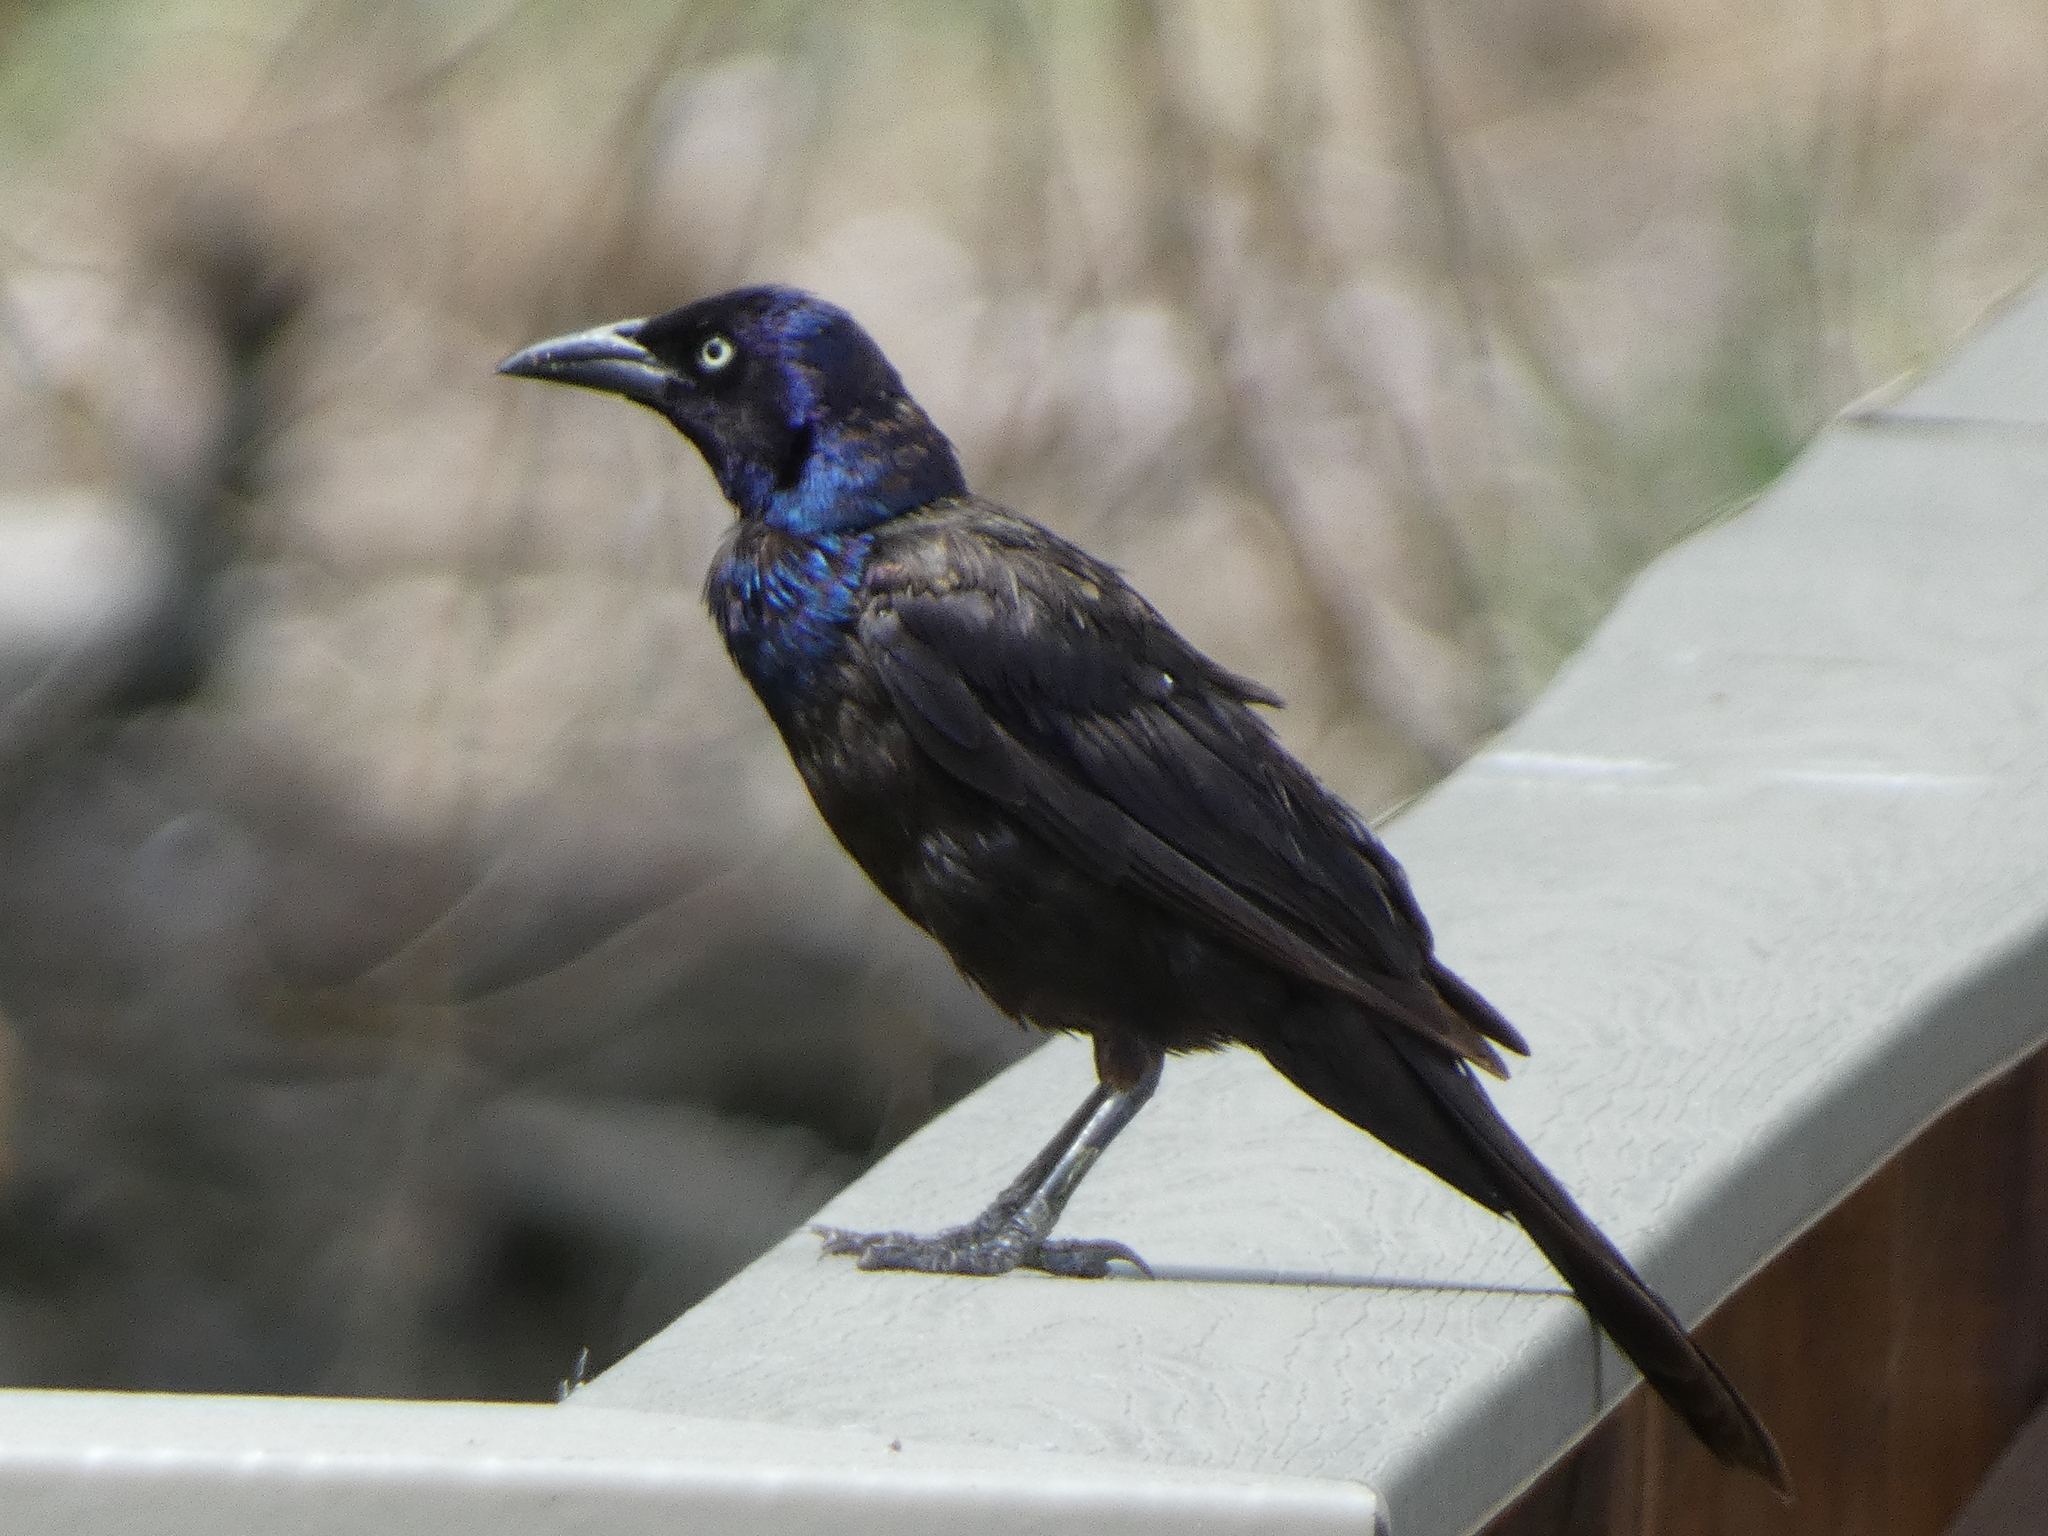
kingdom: Animalia
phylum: Chordata
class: Aves
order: Passeriformes
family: Icteridae
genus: Quiscalus
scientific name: Quiscalus quiscula
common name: Common grackle
